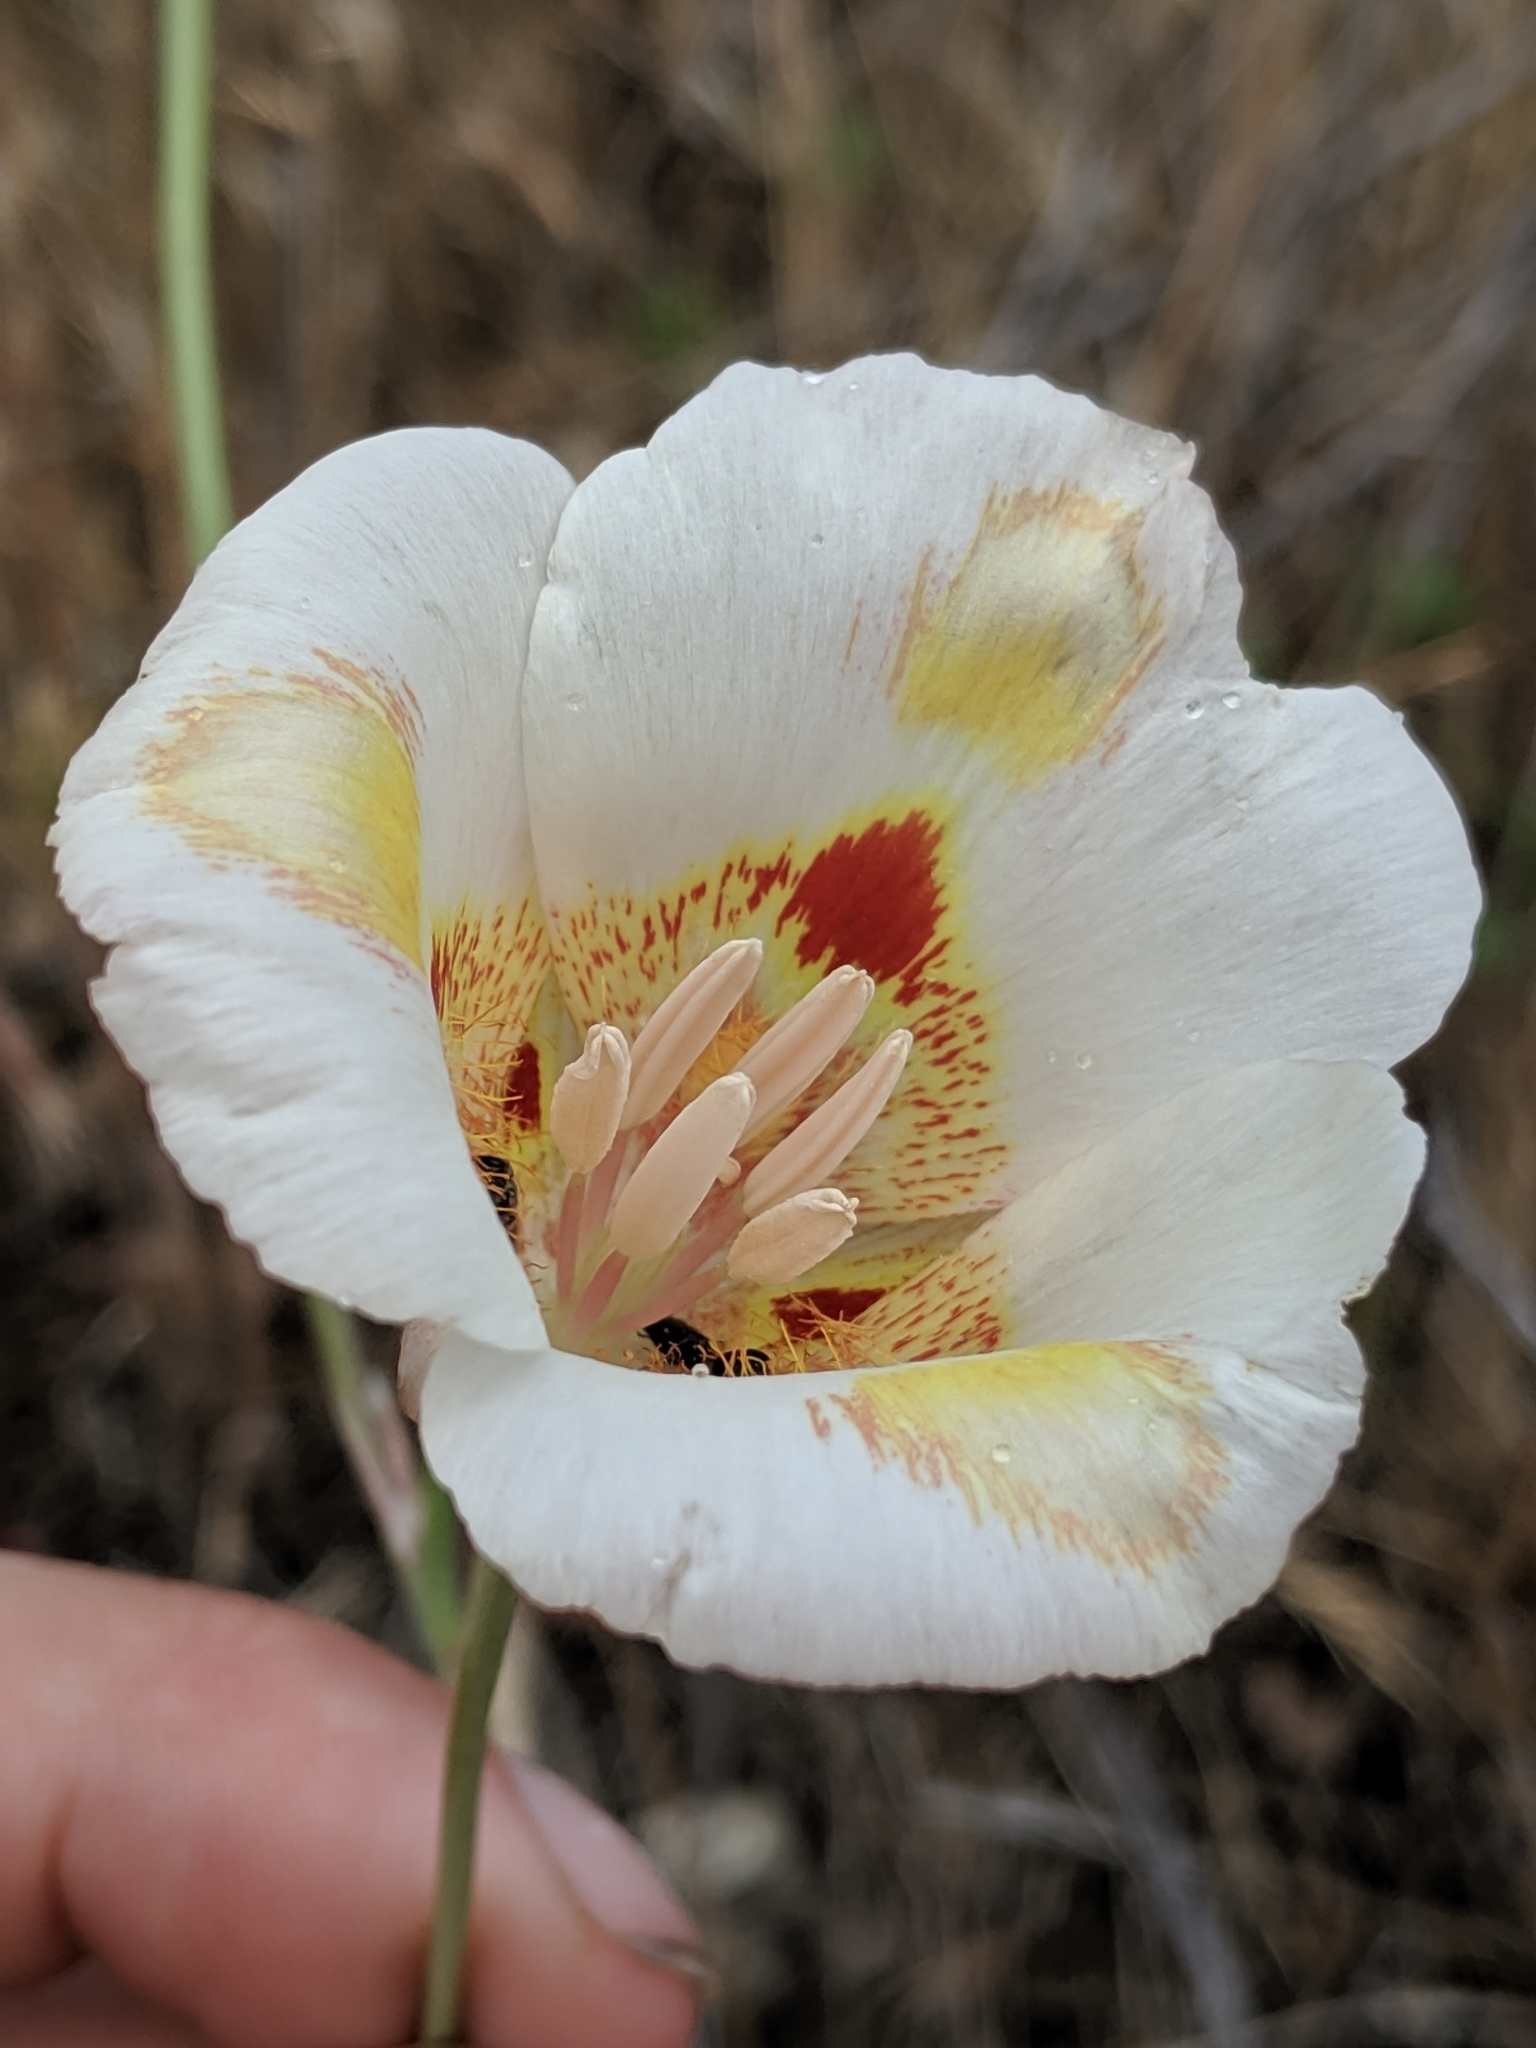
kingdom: Plantae
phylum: Tracheophyta
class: Liliopsida
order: Liliales
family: Liliaceae
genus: Calochortus
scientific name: Calochortus venustus
